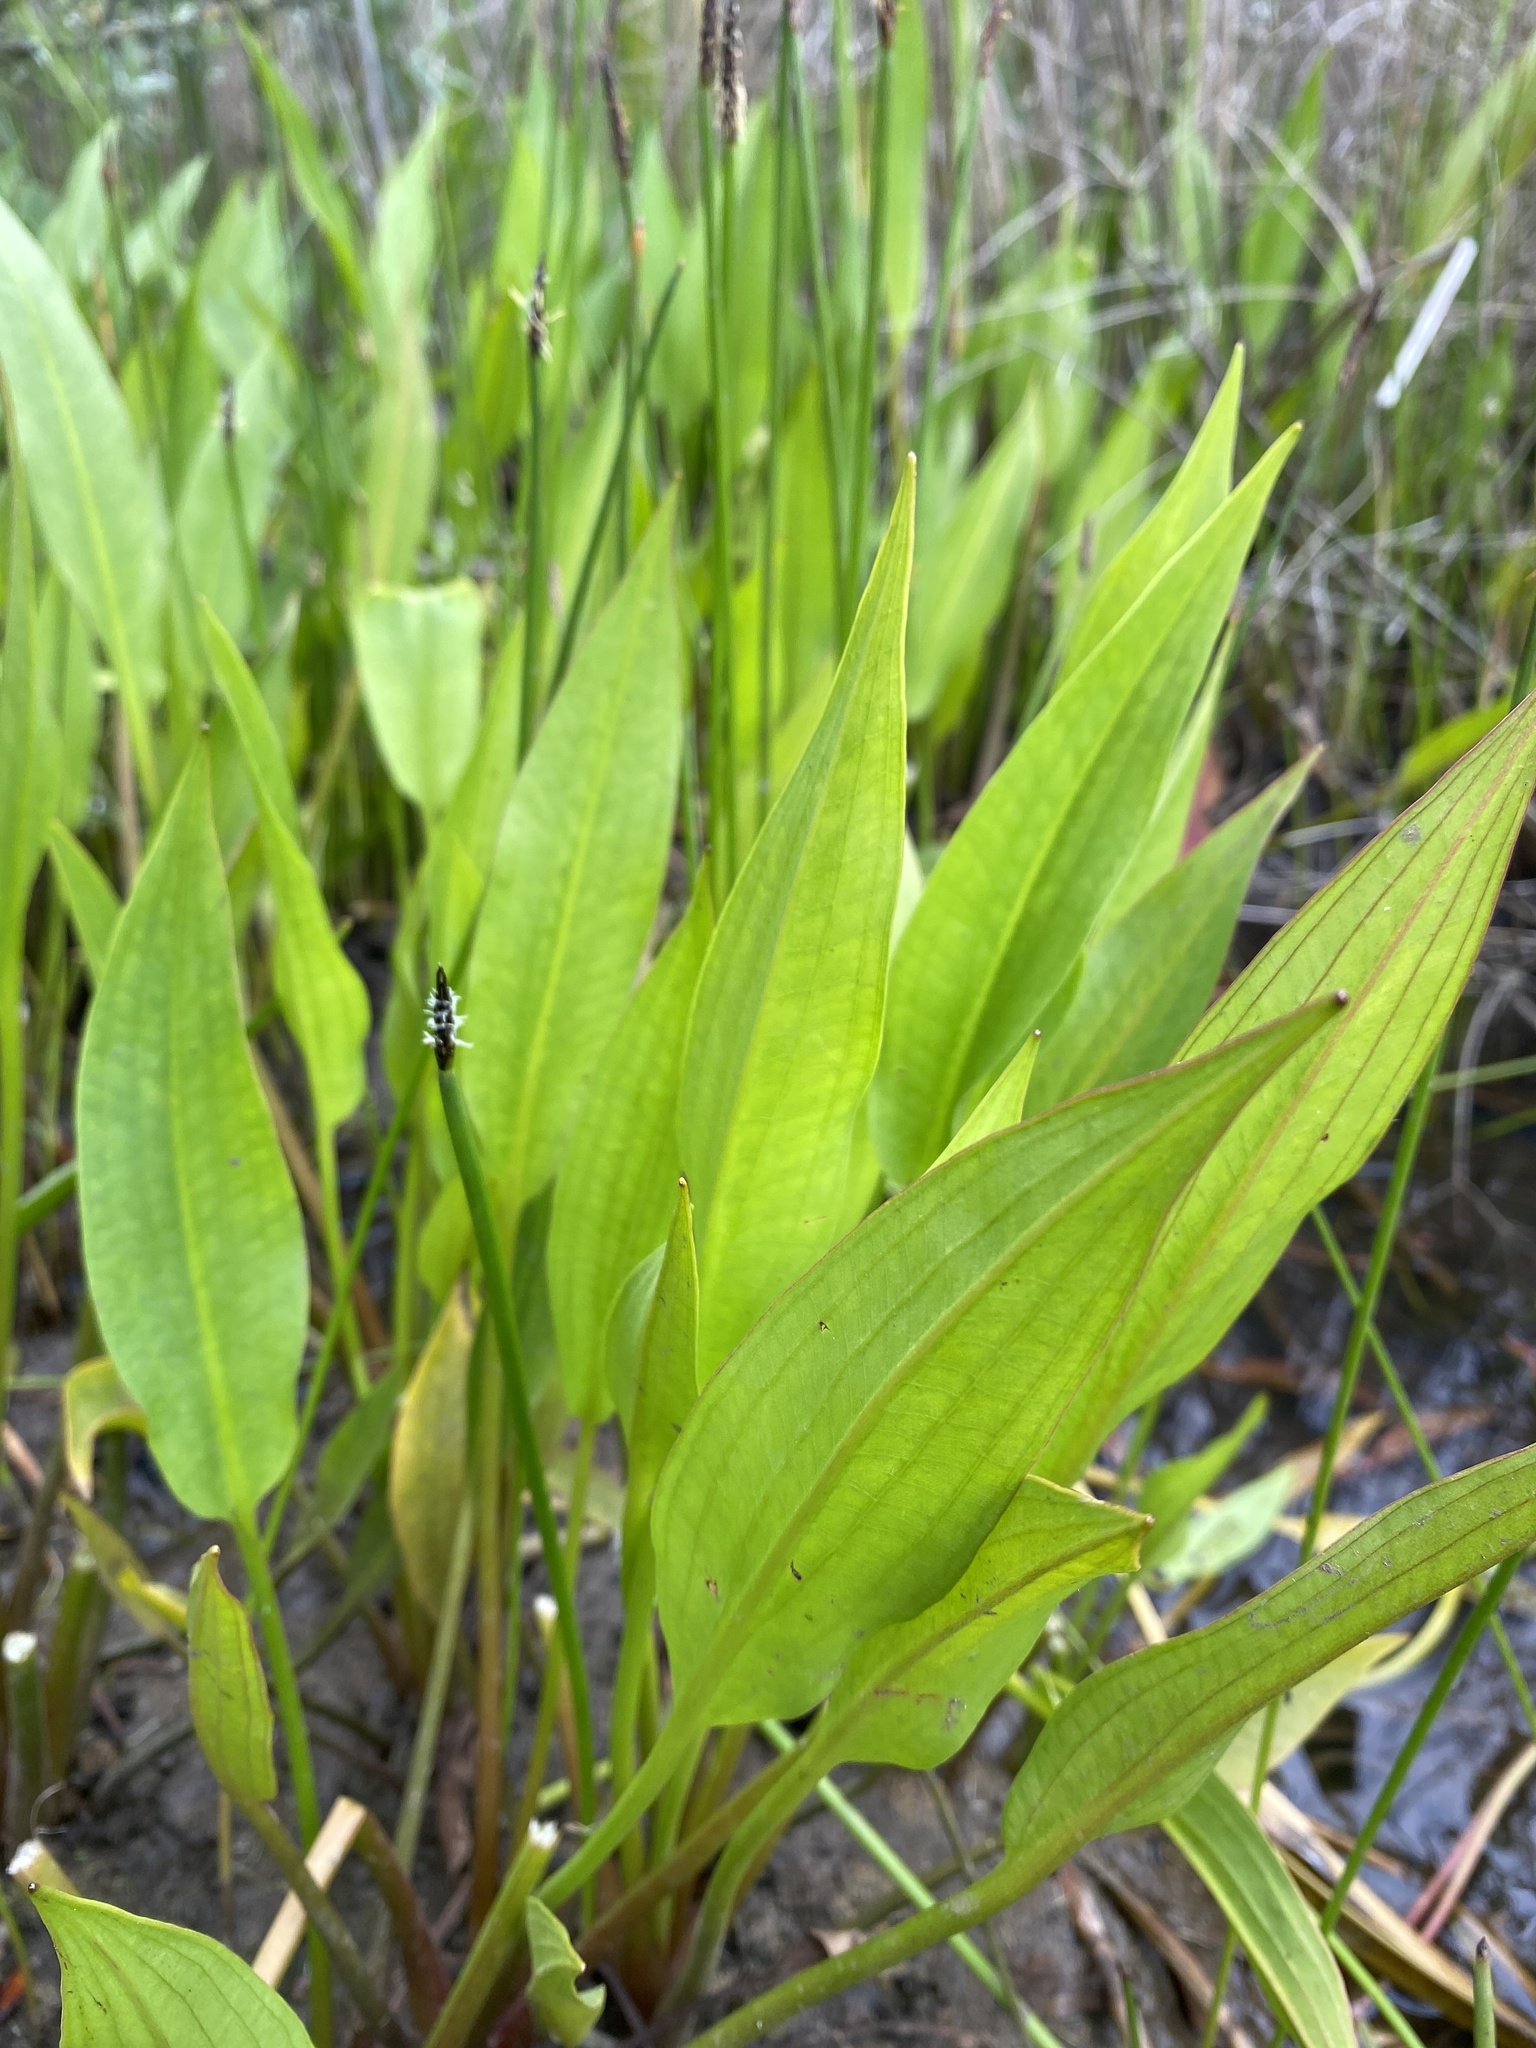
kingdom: Plantae
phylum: Tracheophyta
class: Liliopsida
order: Alismatales
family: Alismataceae
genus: Alisma
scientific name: Alisma lanceolatum
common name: Narrow-leaved water-plantain
